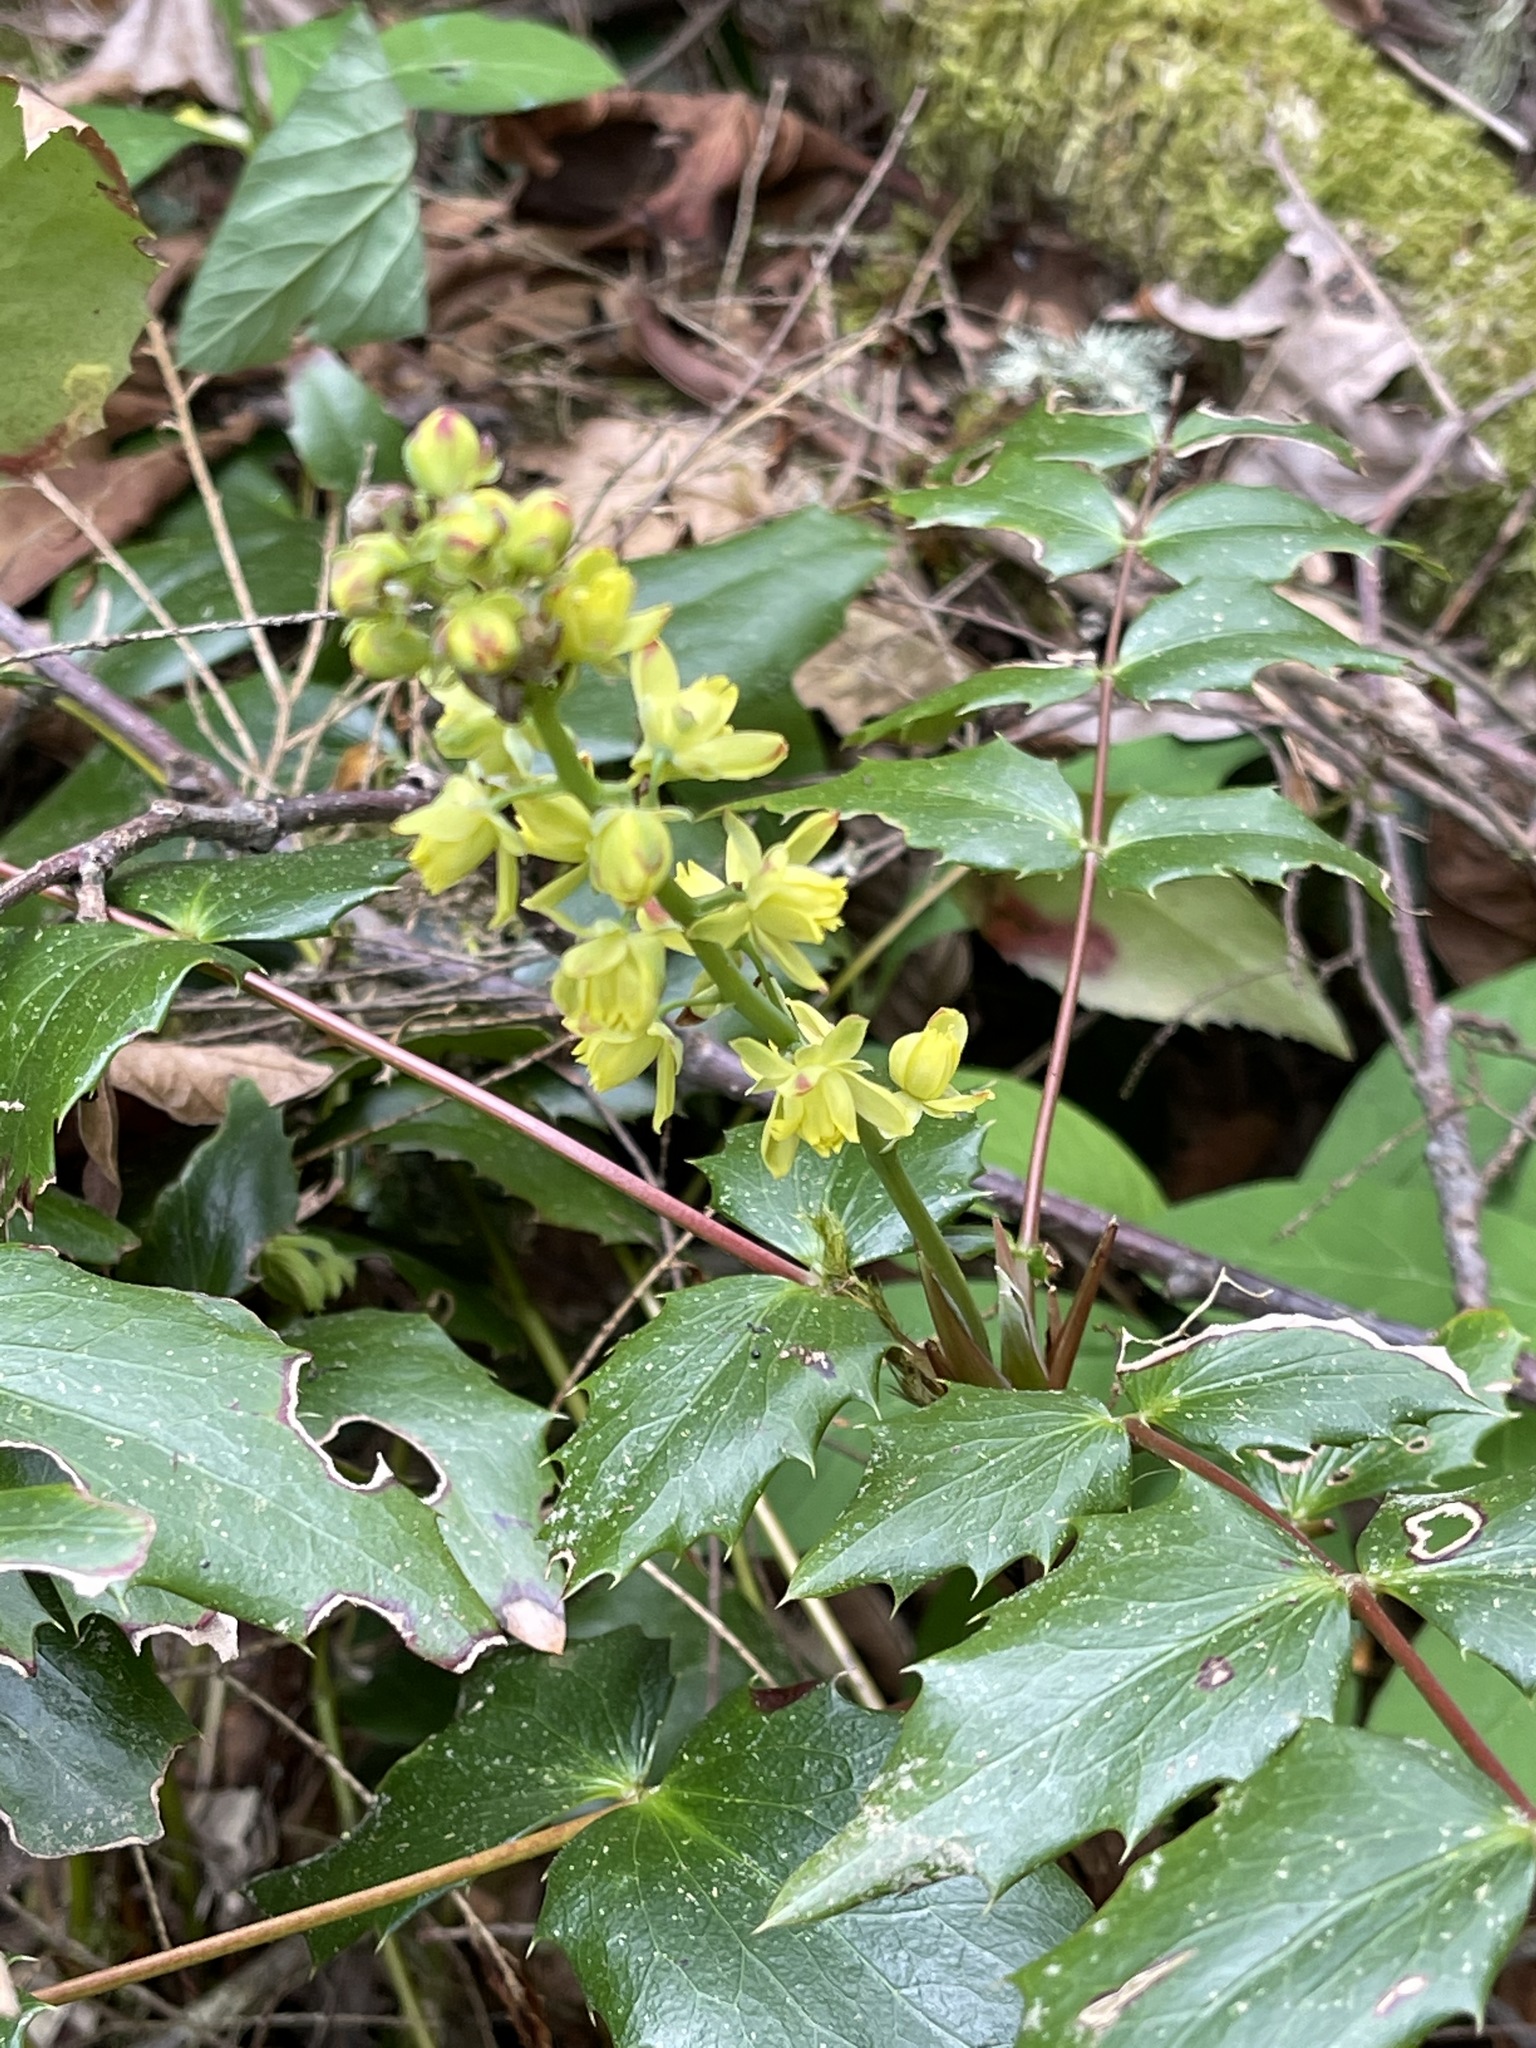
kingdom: Plantae
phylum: Tracheophyta
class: Magnoliopsida
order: Ranunculales
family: Berberidaceae
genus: Mahonia
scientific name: Mahonia nervosa
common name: Cascade oregon-grape
